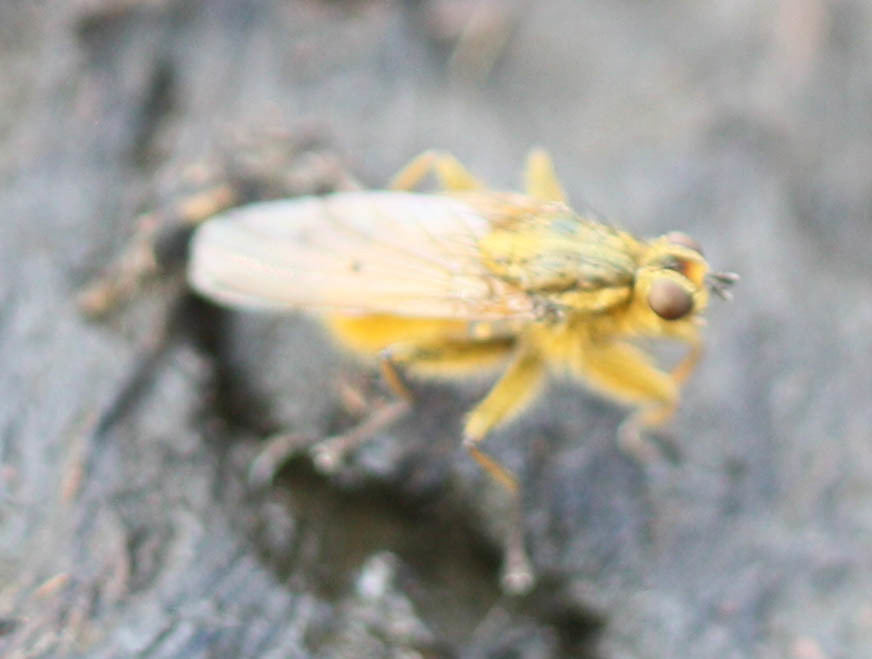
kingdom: Animalia
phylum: Arthropoda
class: Insecta
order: Diptera
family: Scathophagidae
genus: Scathophaga
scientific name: Scathophaga stercoraria
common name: Yellow dung fly
